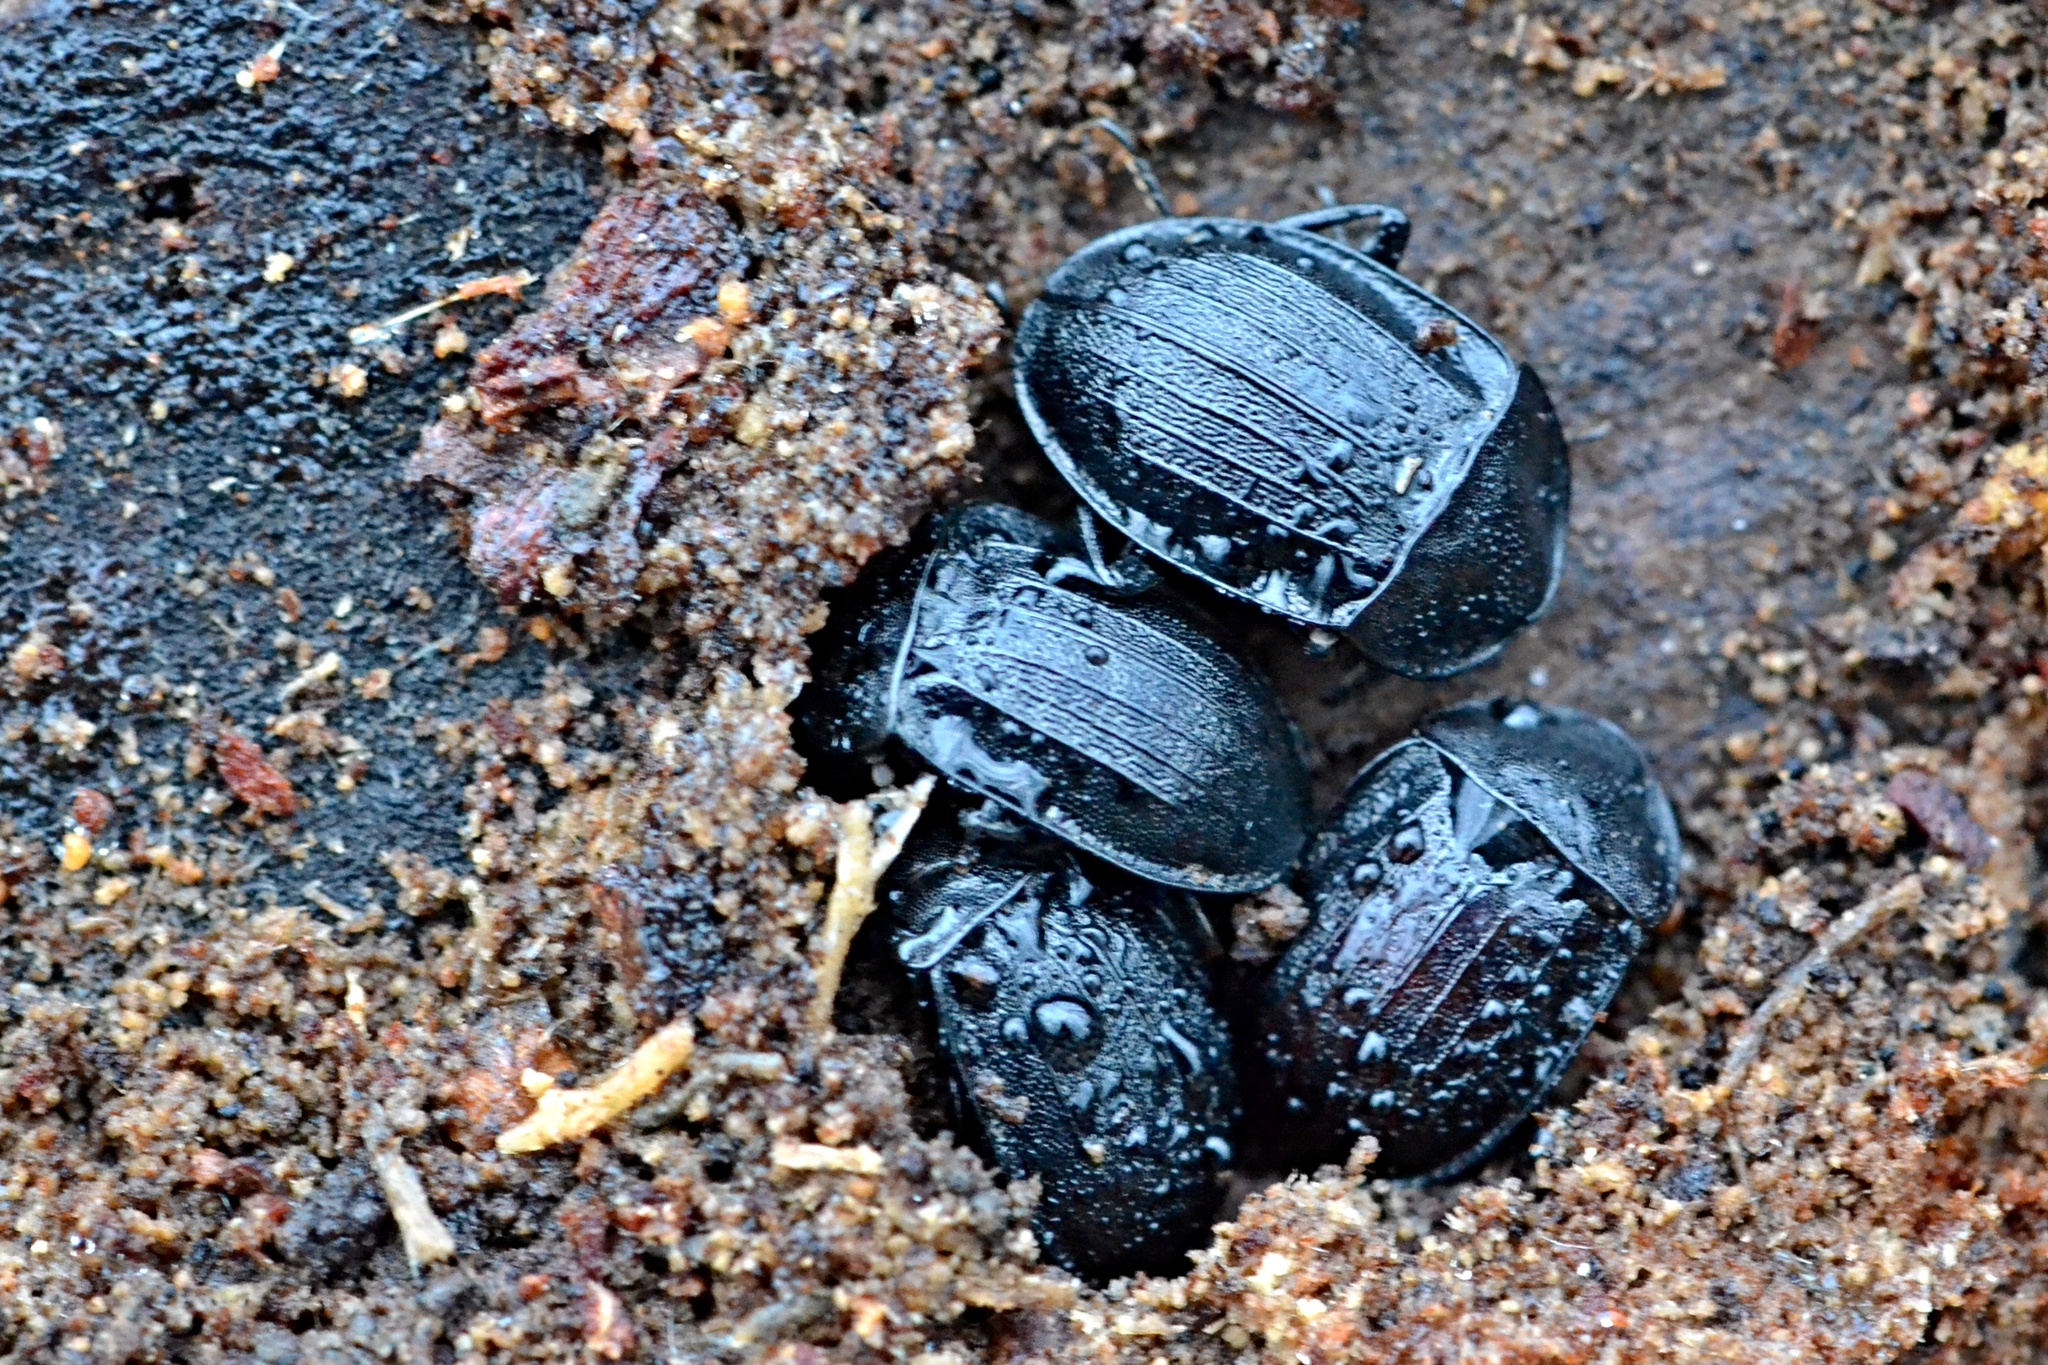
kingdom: Animalia
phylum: Arthropoda
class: Insecta
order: Coleoptera
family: Staphylinidae
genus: Silpha
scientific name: Silpha atrata
